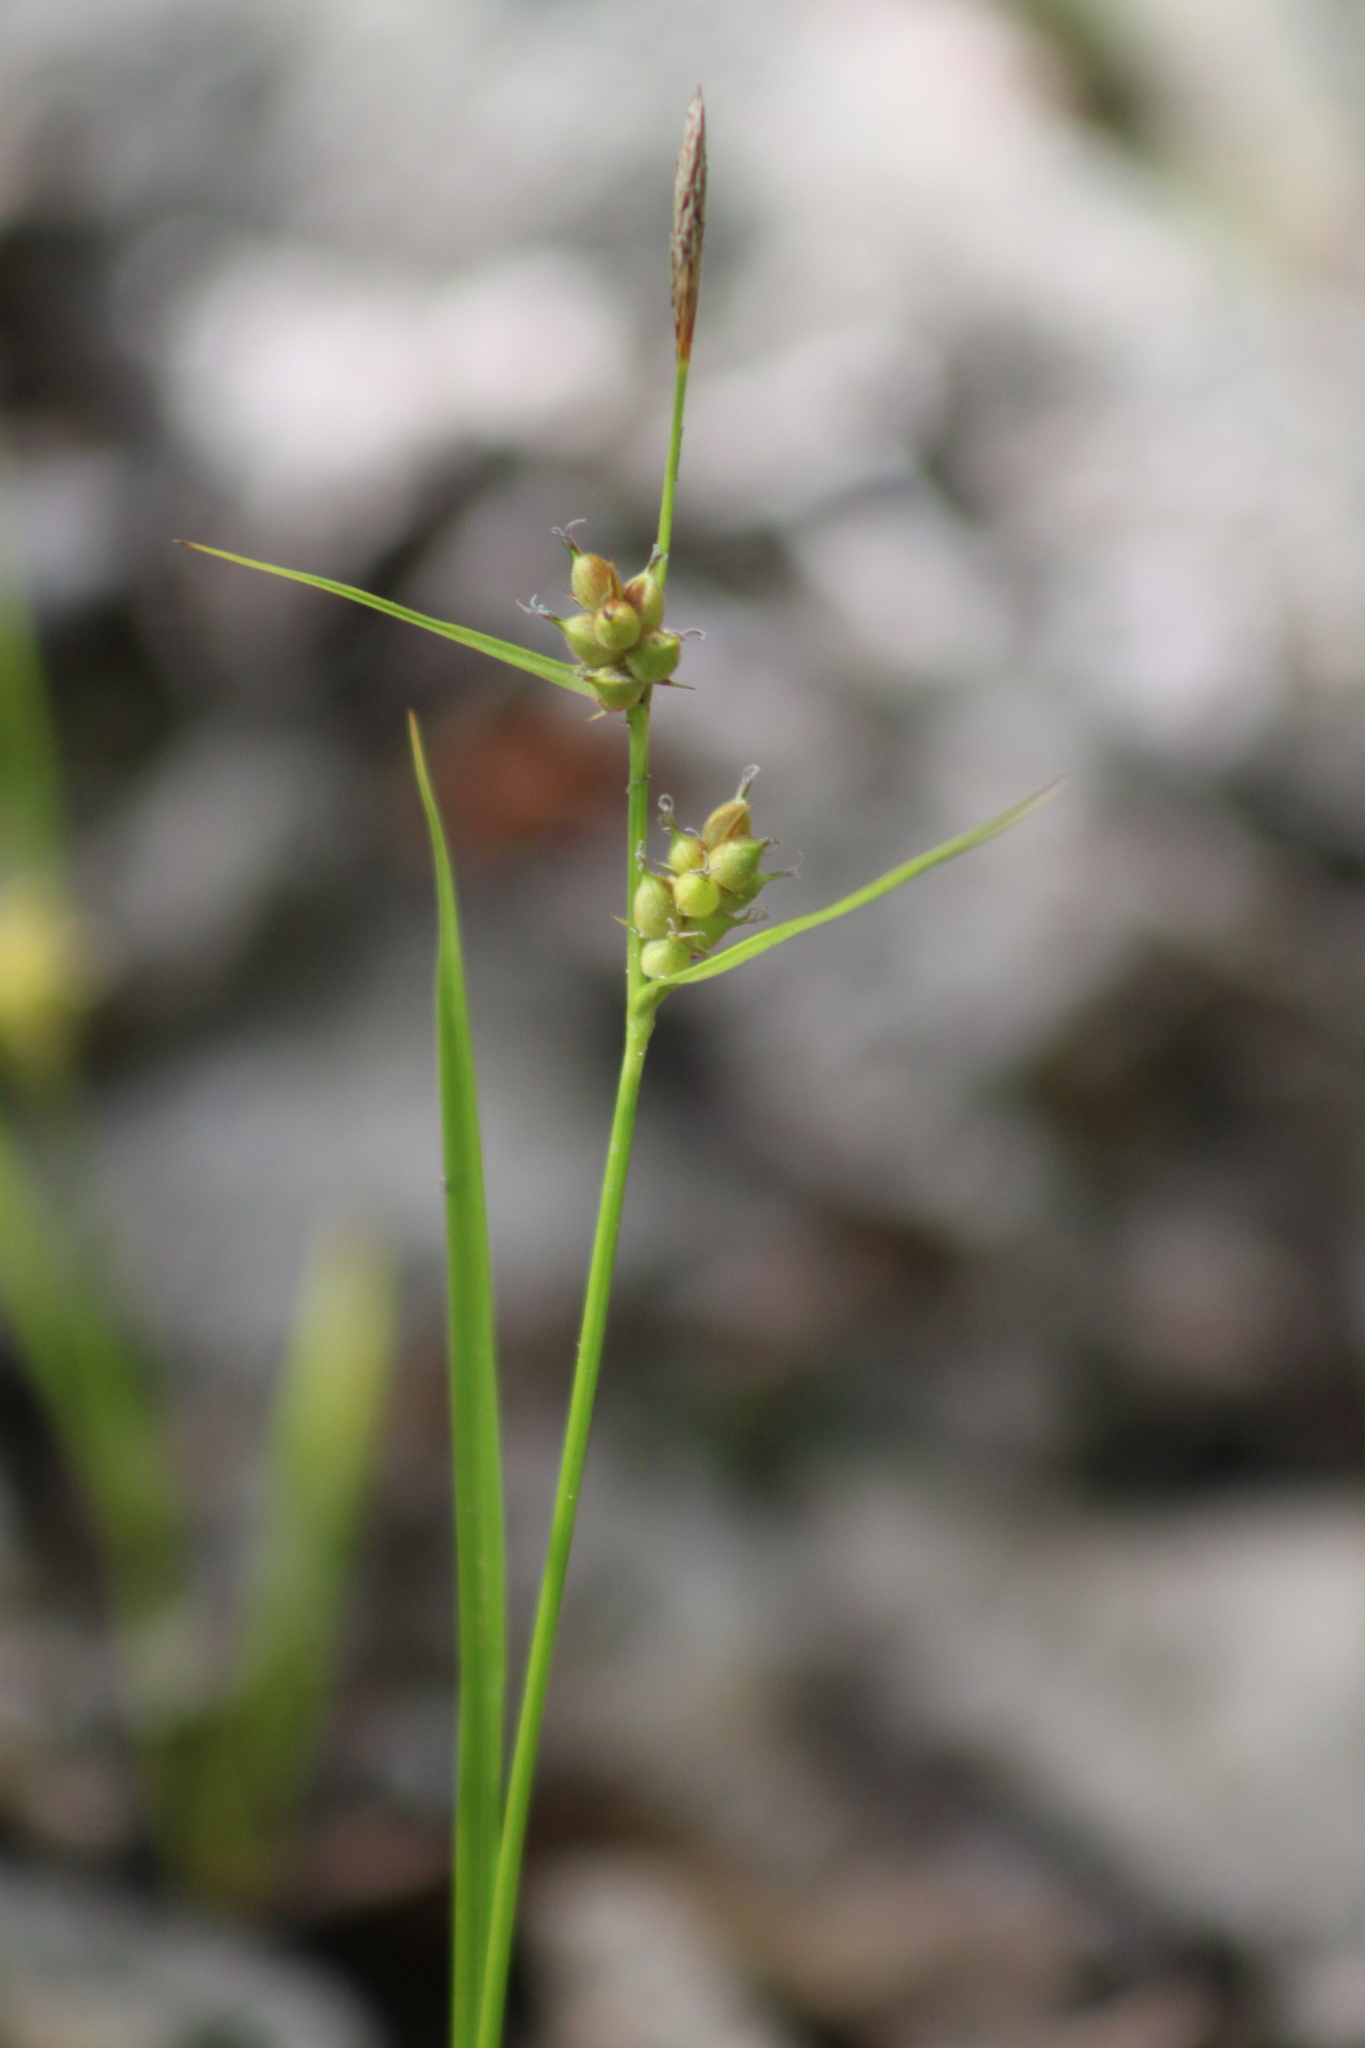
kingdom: Plantae
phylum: Tracheophyta
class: Liliopsida
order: Poales
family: Cyperaceae
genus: Carex
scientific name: Carex houghtoniana
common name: Houghton's sedge
